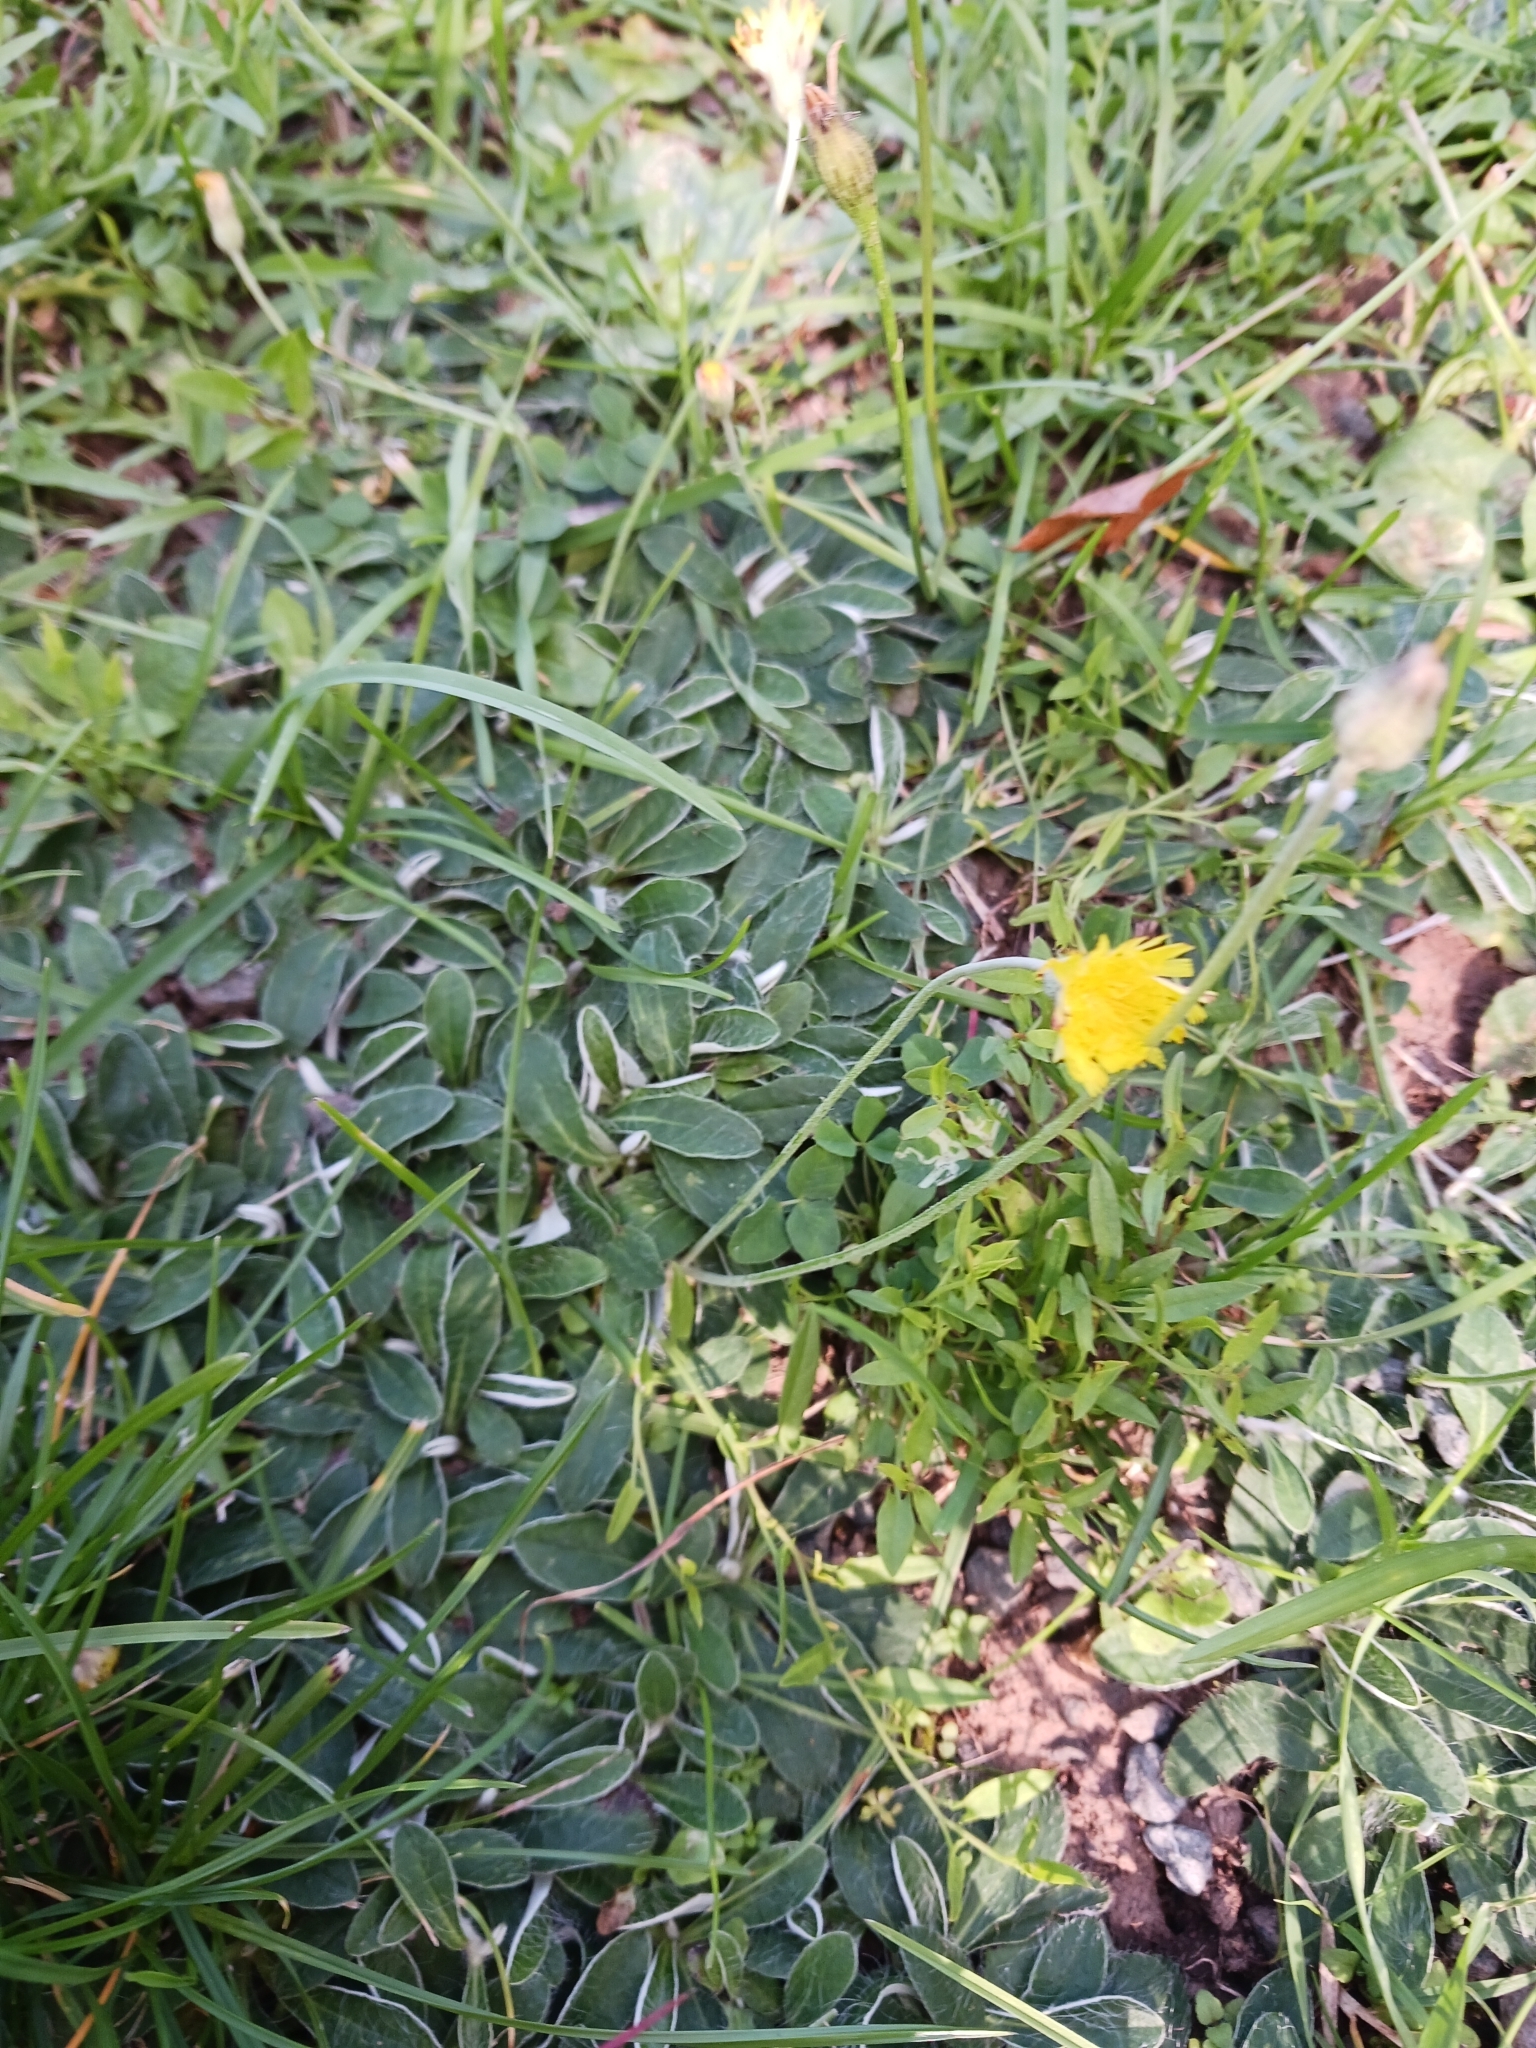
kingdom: Plantae
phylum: Tracheophyta
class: Magnoliopsida
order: Asterales
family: Asteraceae
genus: Pilosella
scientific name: Pilosella officinarum
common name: Mouse-ear hawkweed
